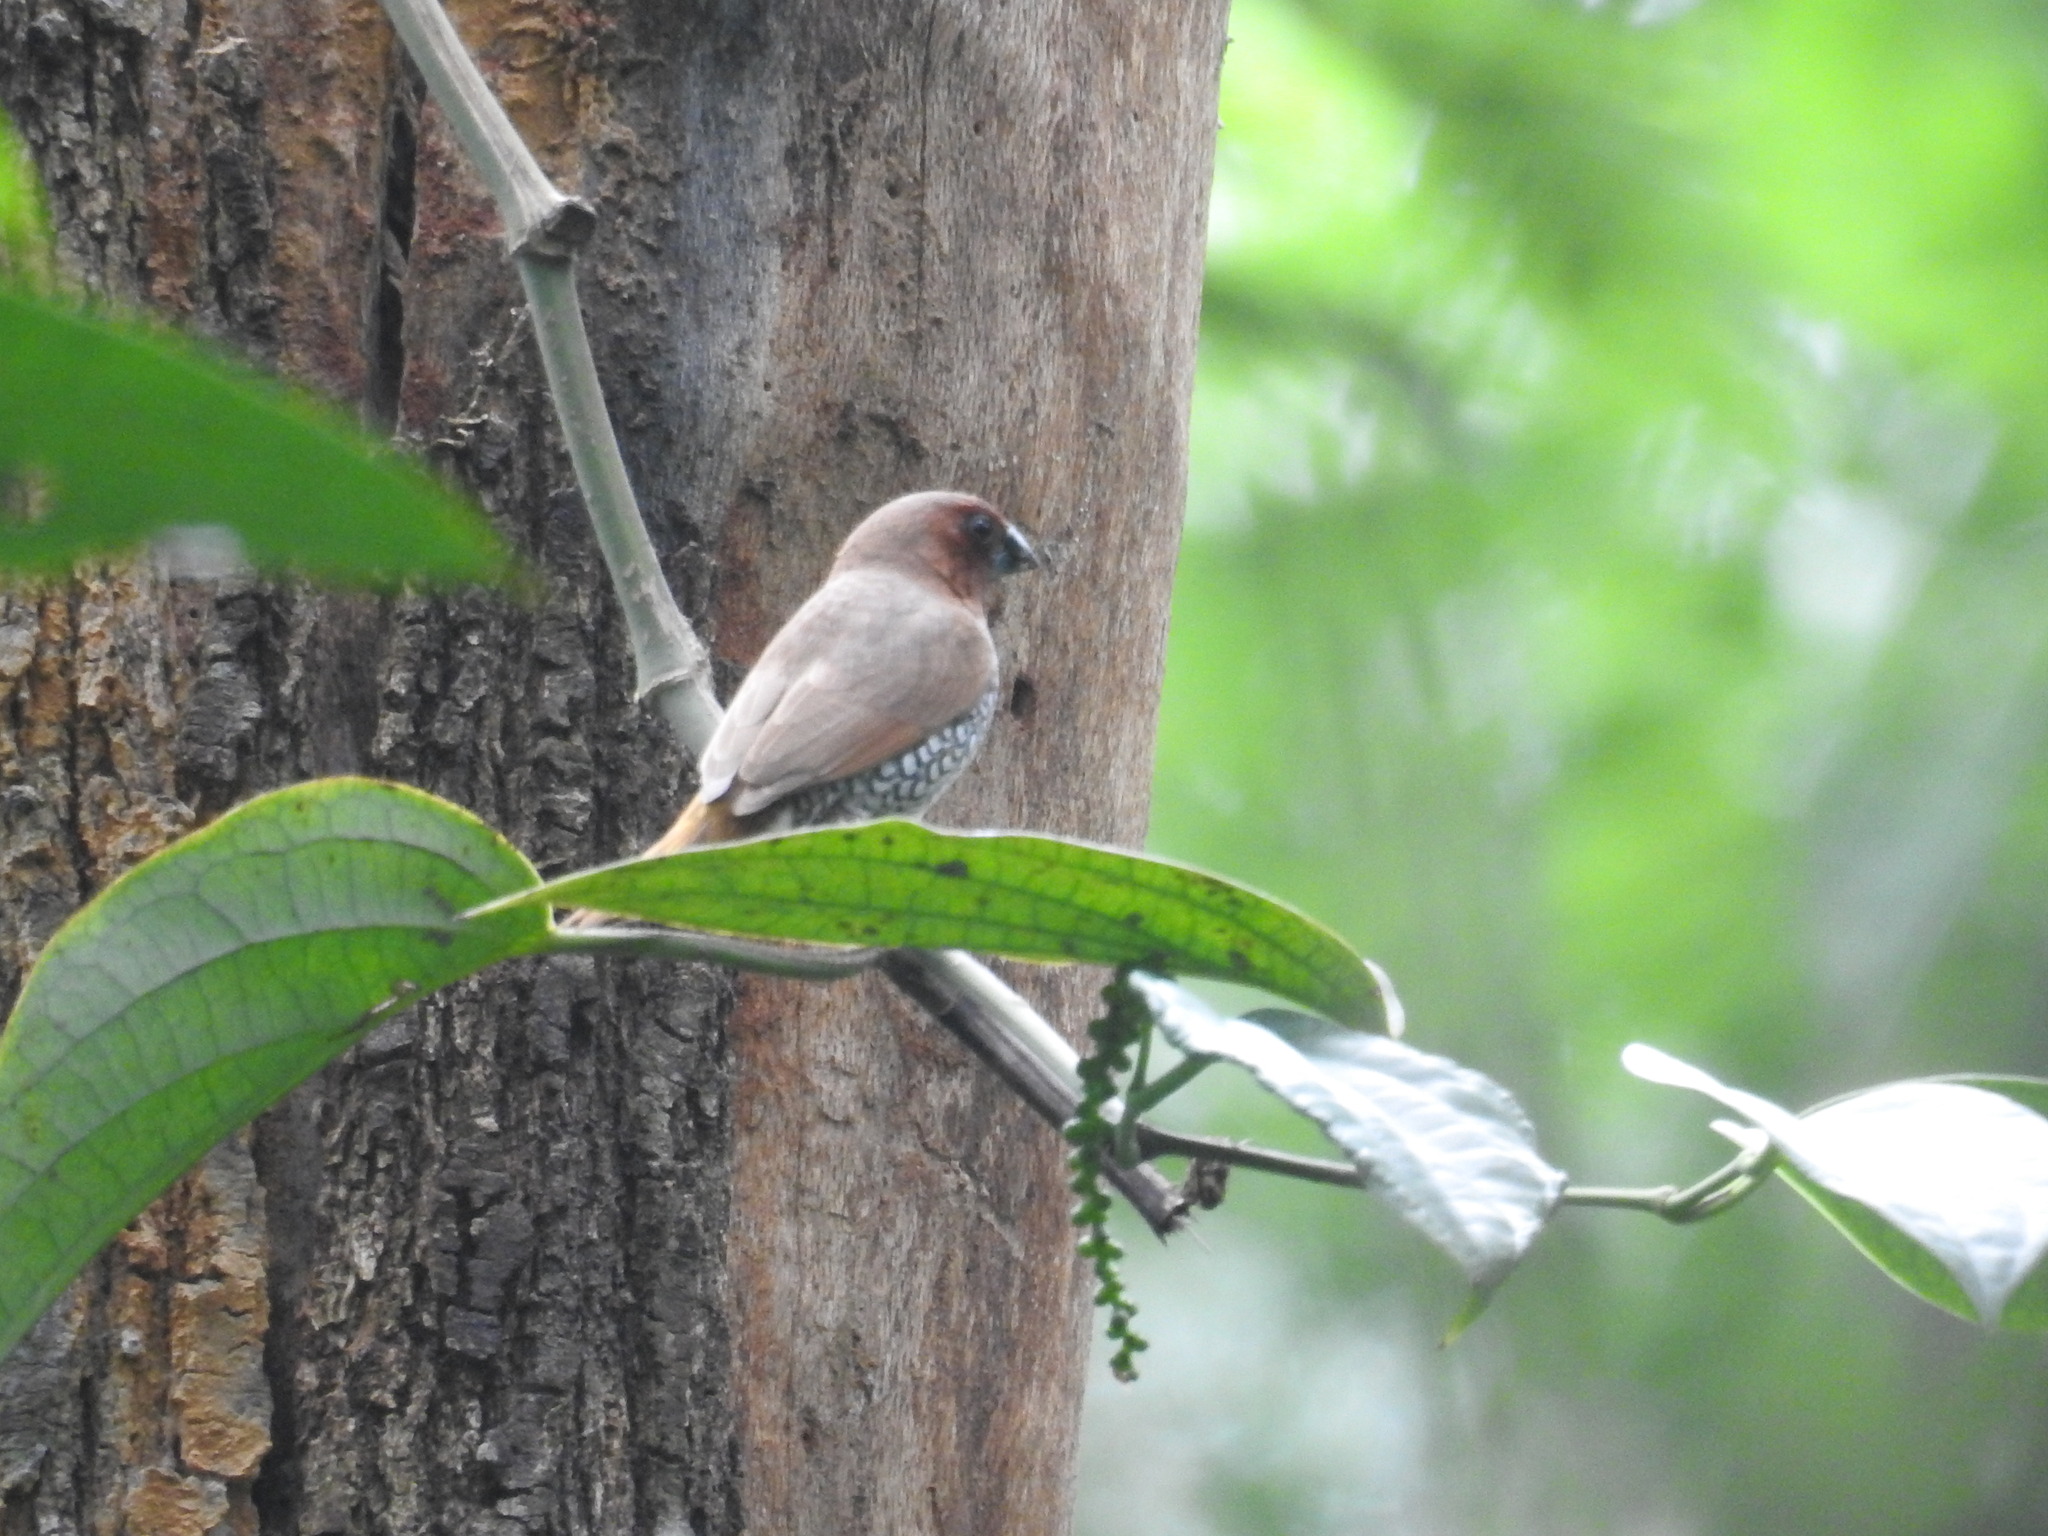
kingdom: Animalia
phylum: Chordata
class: Aves
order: Passeriformes
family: Estrildidae
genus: Lonchura
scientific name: Lonchura punctulata
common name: Scaly-breasted munia
